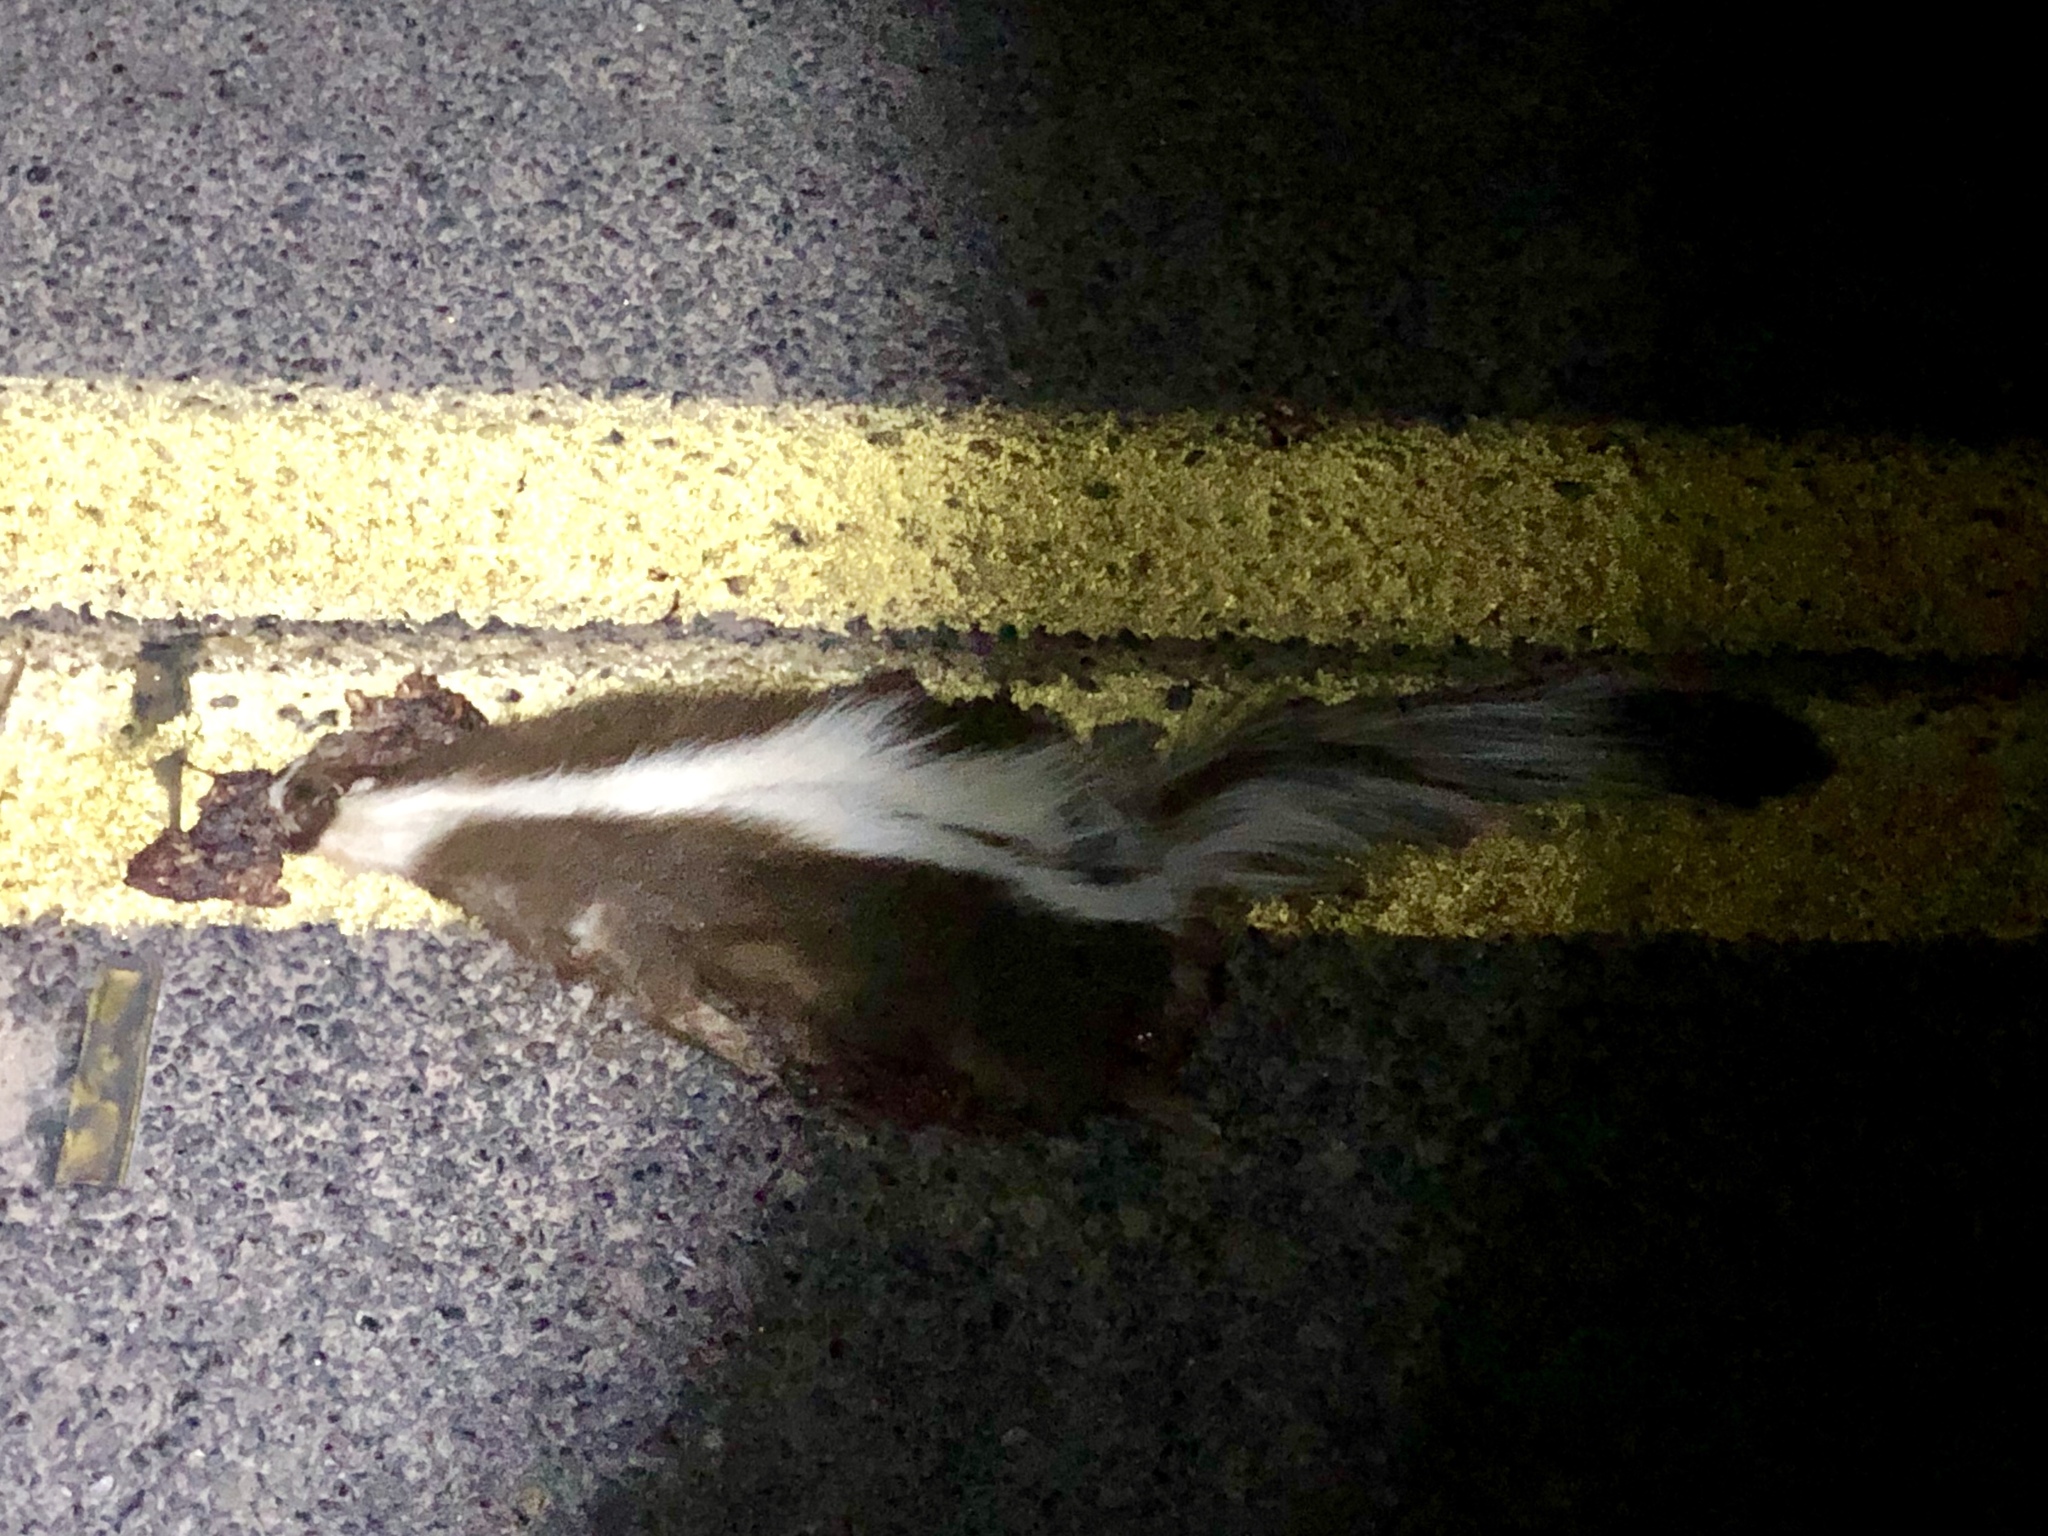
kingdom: Animalia
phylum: Chordata
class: Mammalia
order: Carnivora
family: Mephitidae
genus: Mephitis
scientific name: Mephitis mephitis
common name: Striped skunk
